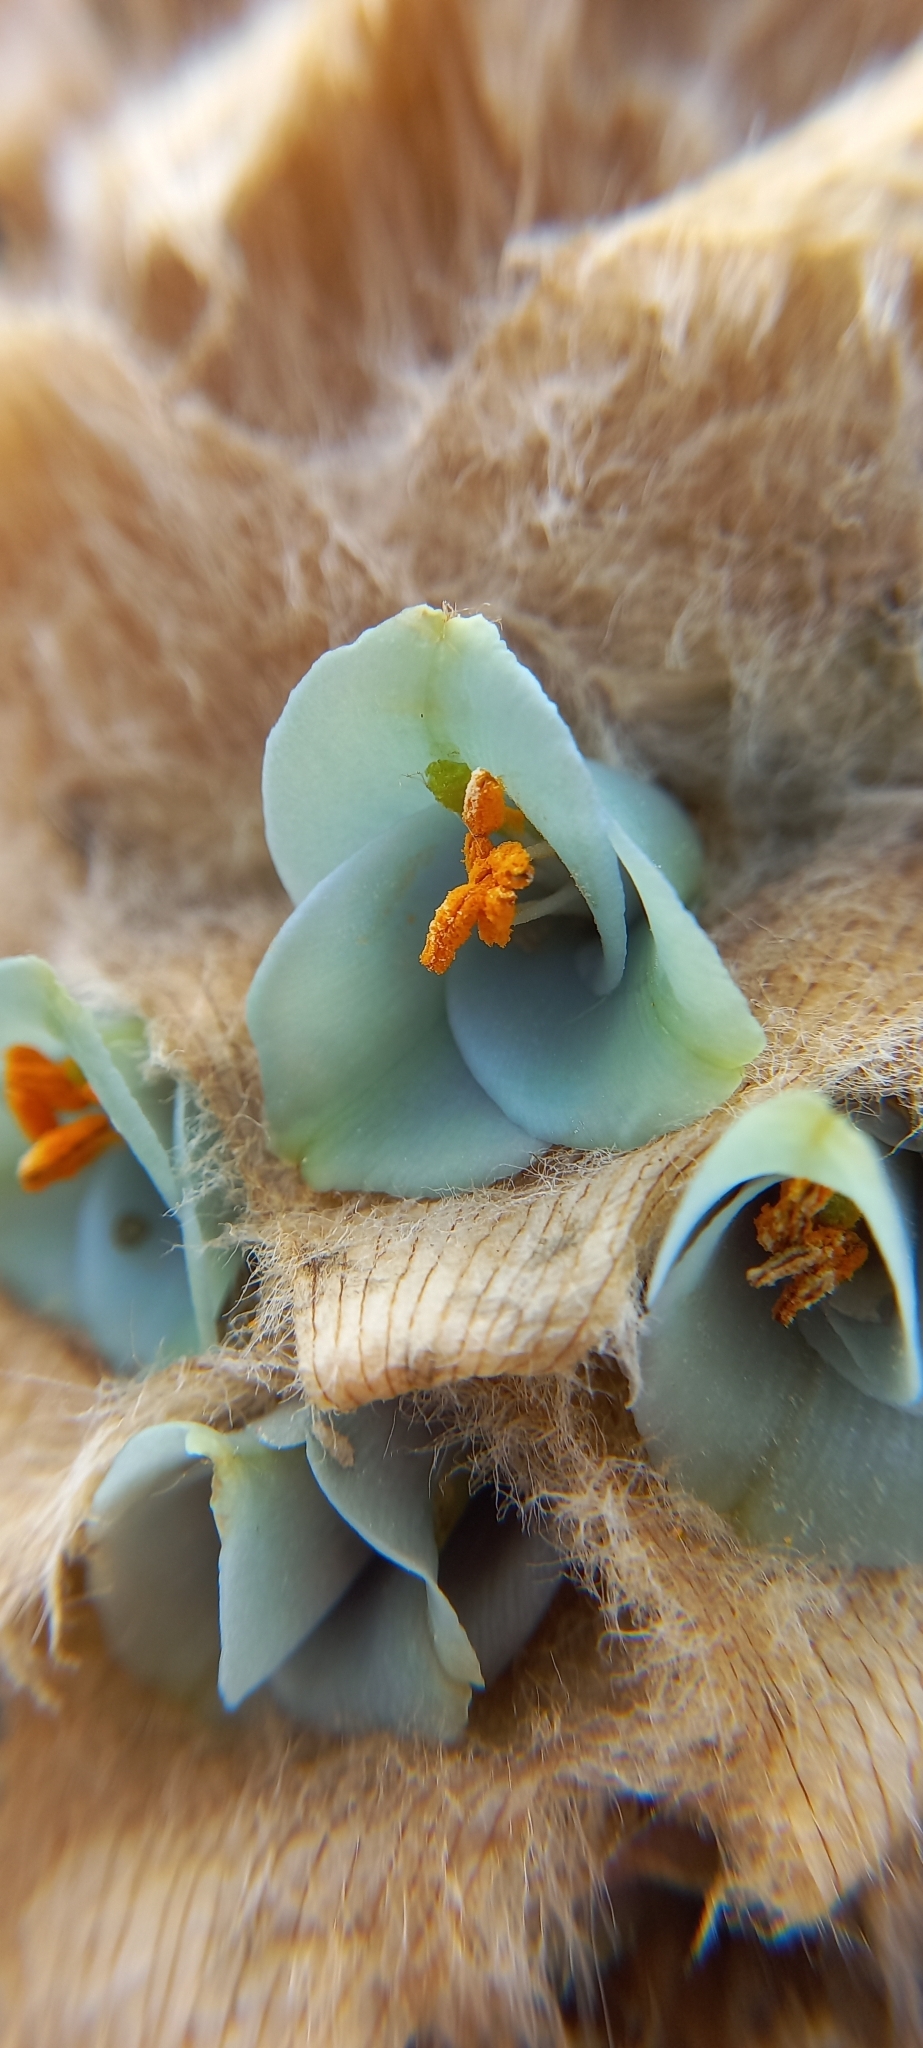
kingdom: Plantae
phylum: Tracheophyta
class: Liliopsida
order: Poales
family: Bromeliaceae
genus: Puya
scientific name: Puya trianae
